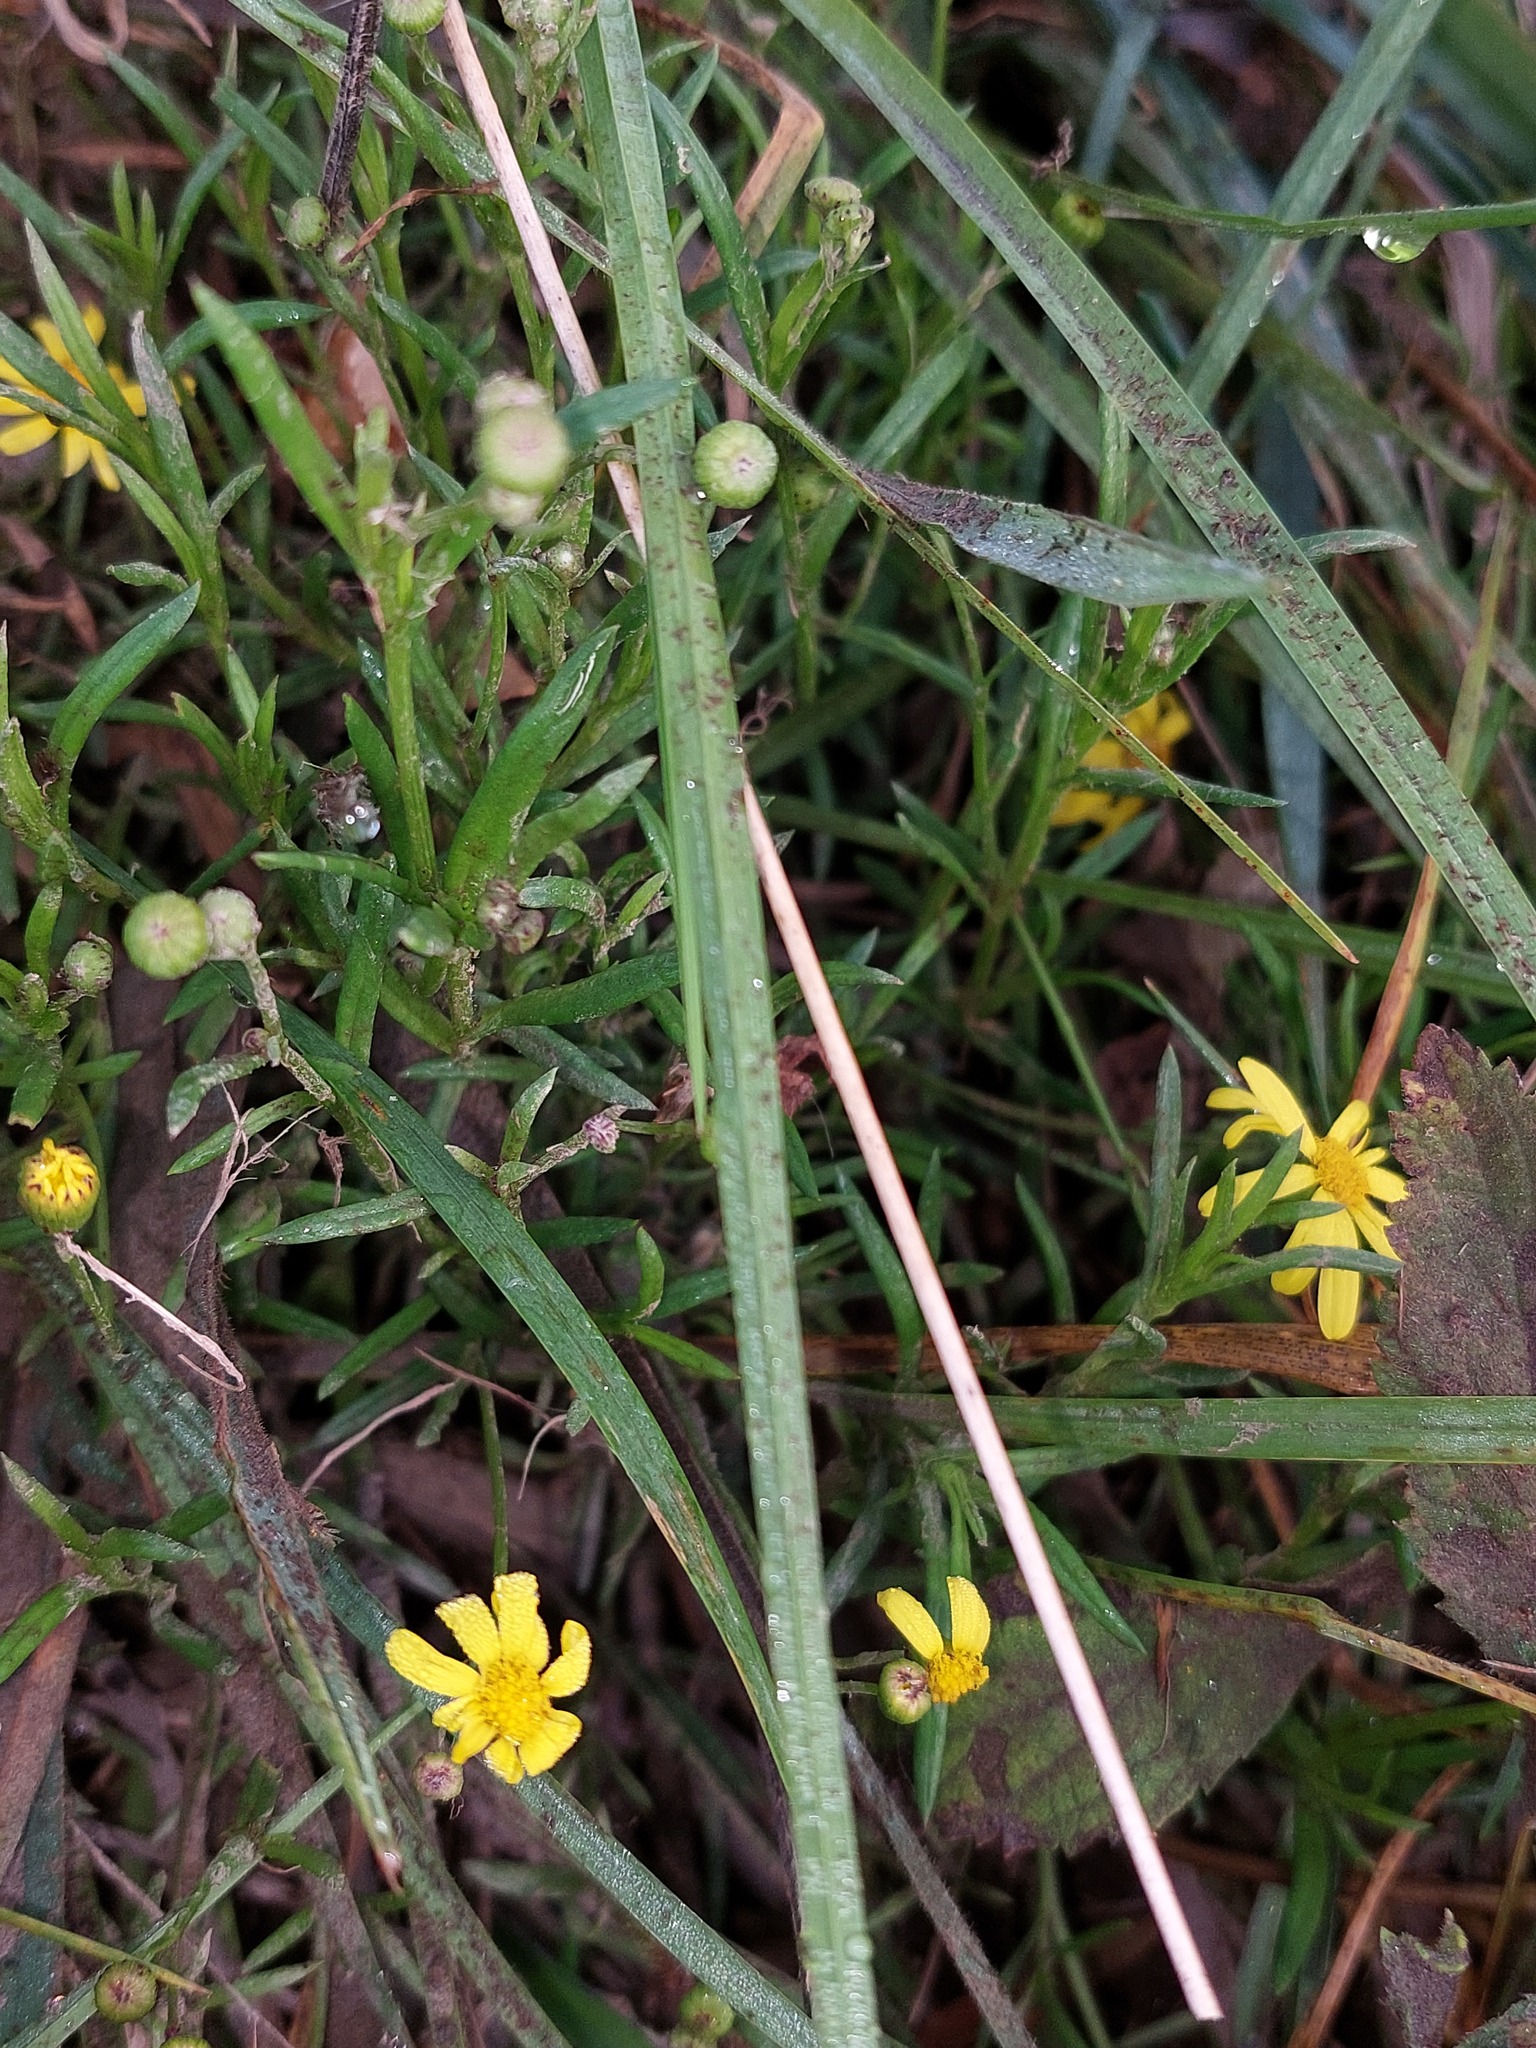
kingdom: Plantae
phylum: Tracheophyta
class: Magnoliopsida
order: Asterales
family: Asteraceae
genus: Senecio
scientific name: Senecio skirrhodon
